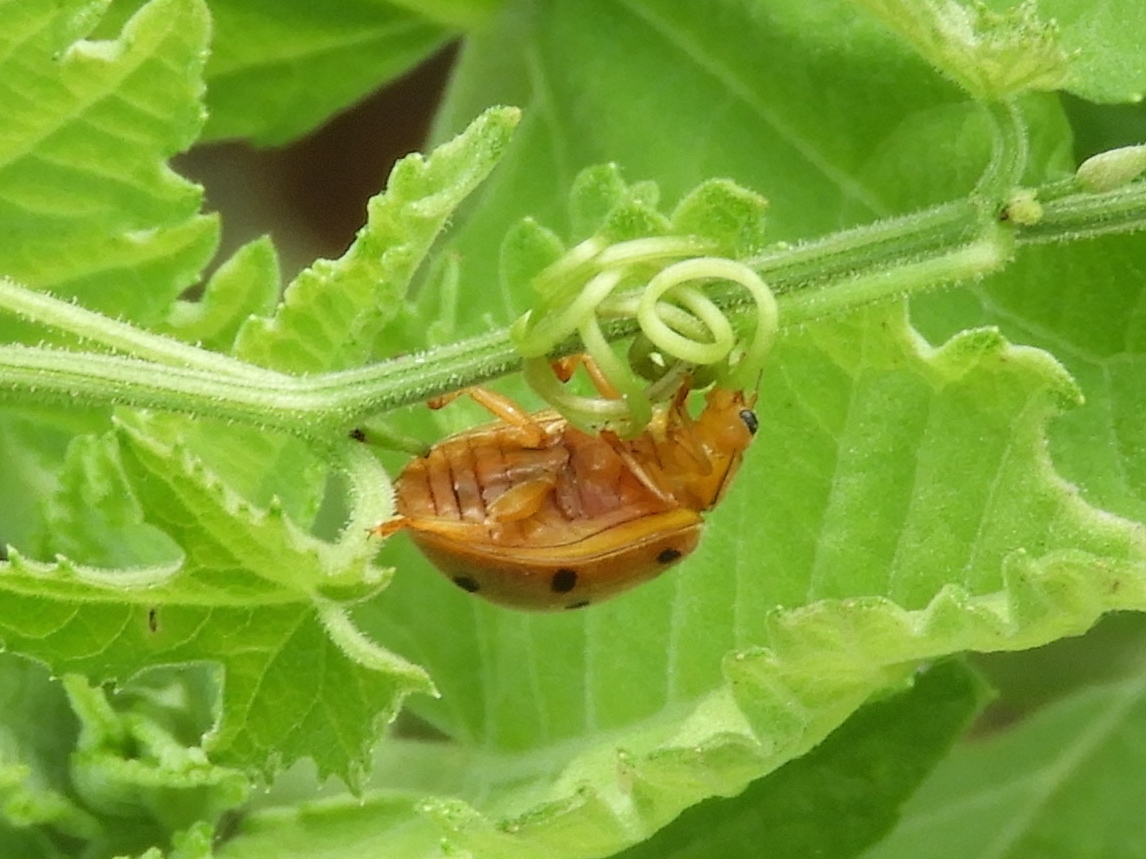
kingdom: Animalia
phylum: Arthropoda
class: Insecta
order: Coleoptera
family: Coccinellidae
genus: Epilachna
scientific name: Epilachna
